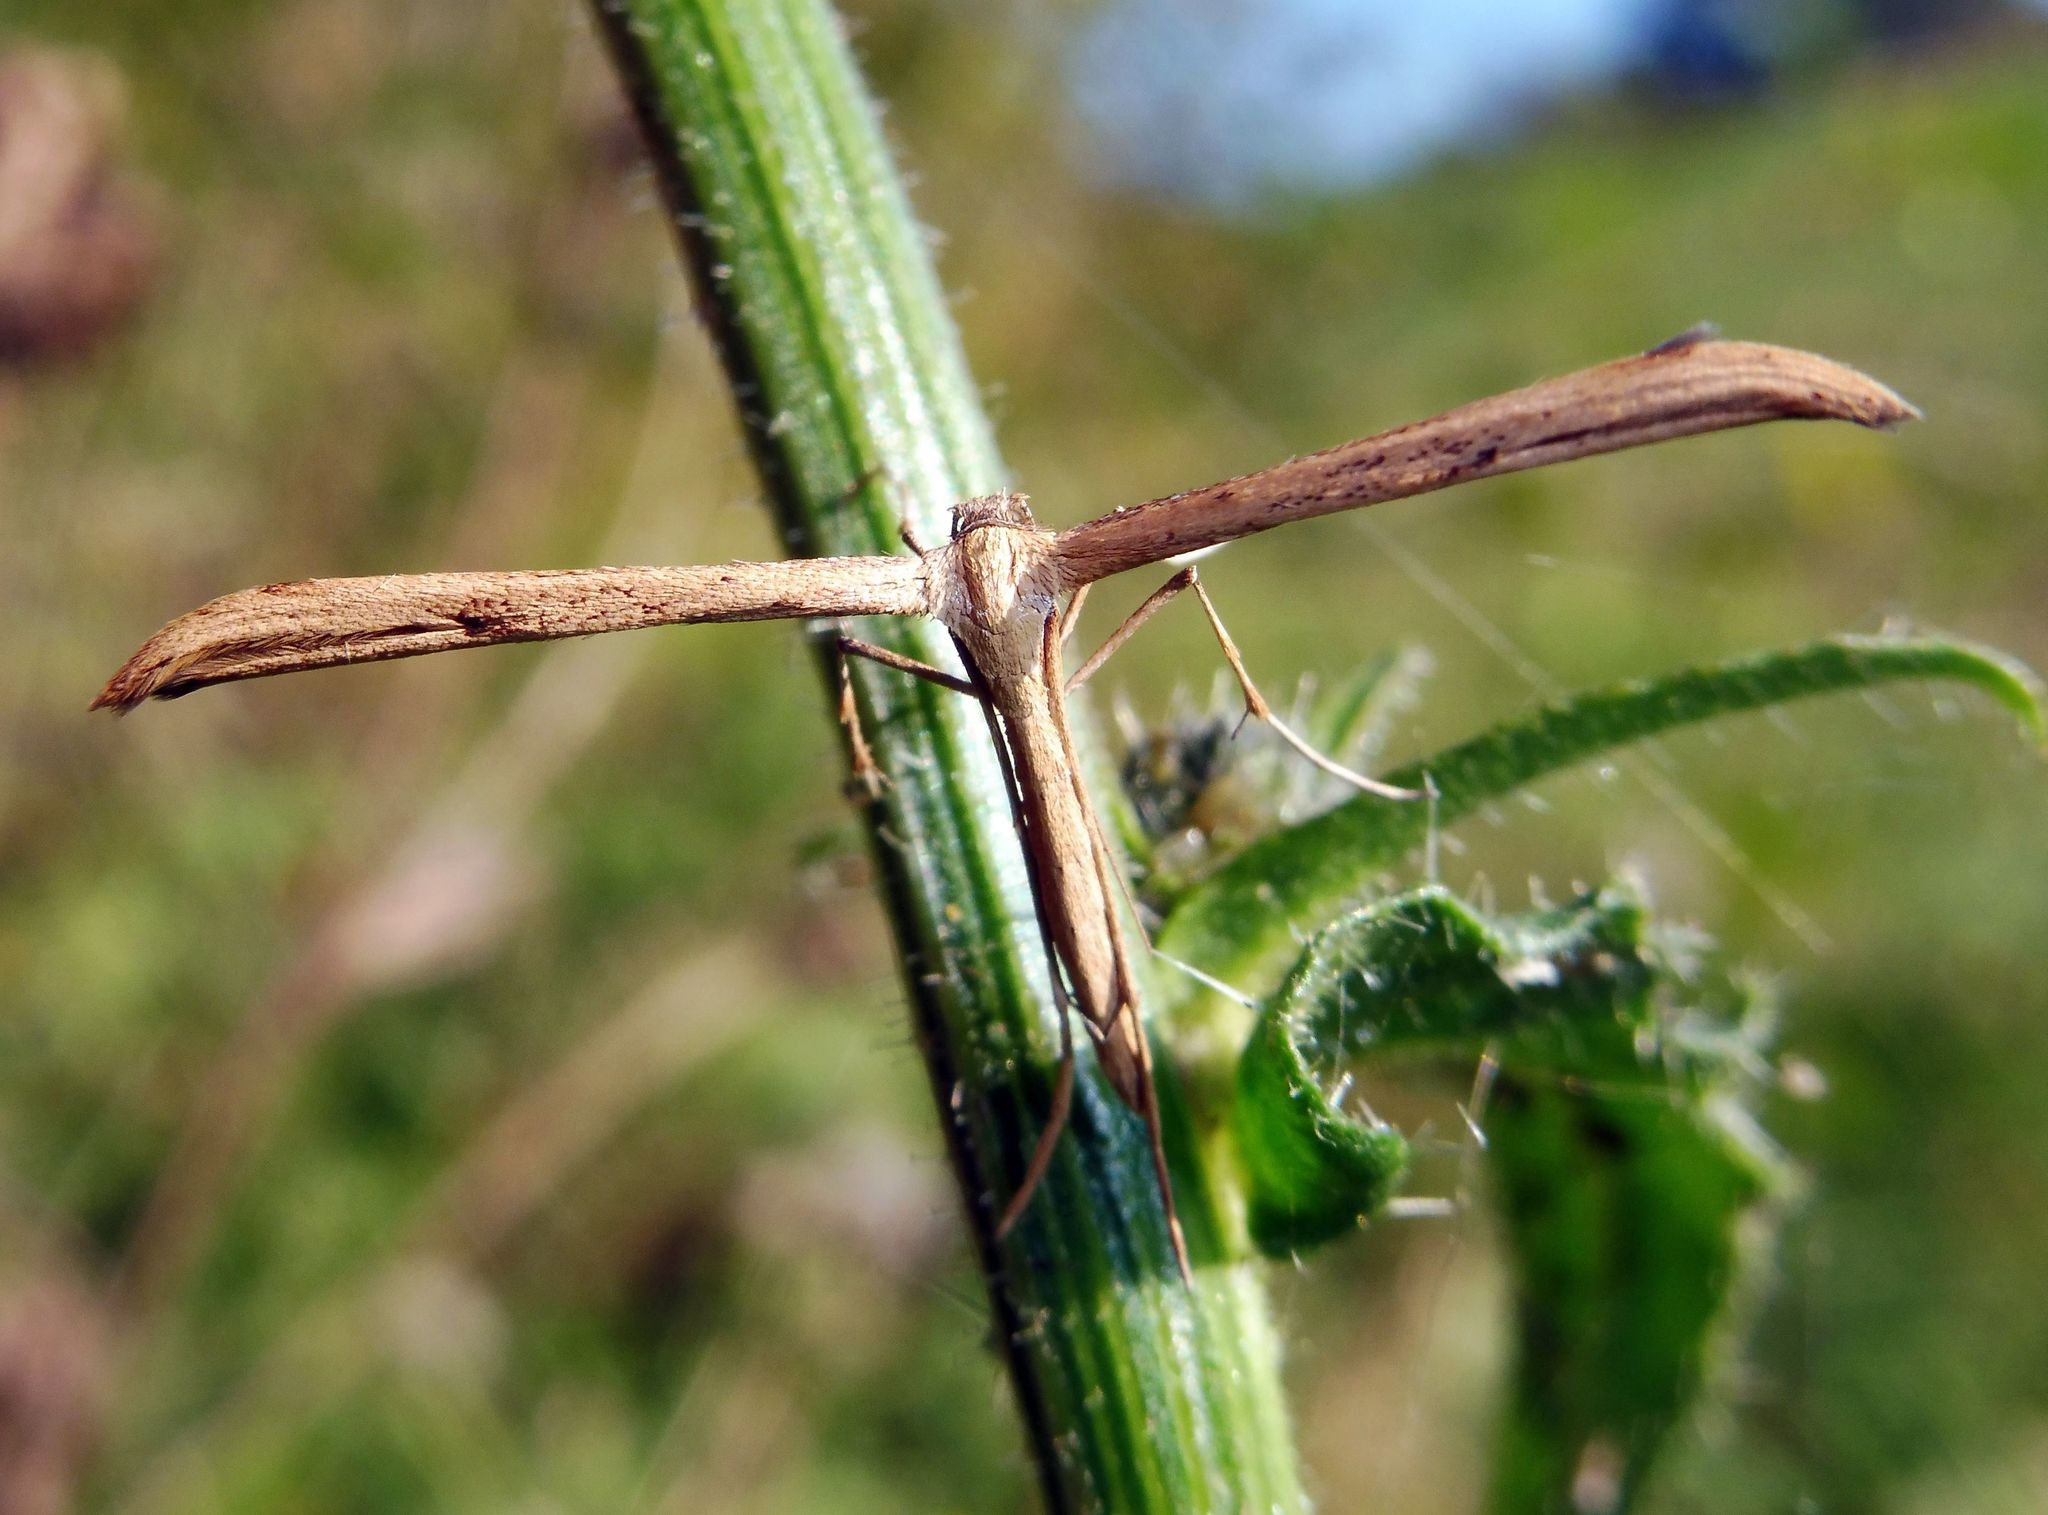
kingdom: Animalia
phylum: Arthropoda
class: Insecta
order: Lepidoptera
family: Pterophoridae
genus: Emmelina
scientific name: Emmelina monodactyla
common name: Common plume
